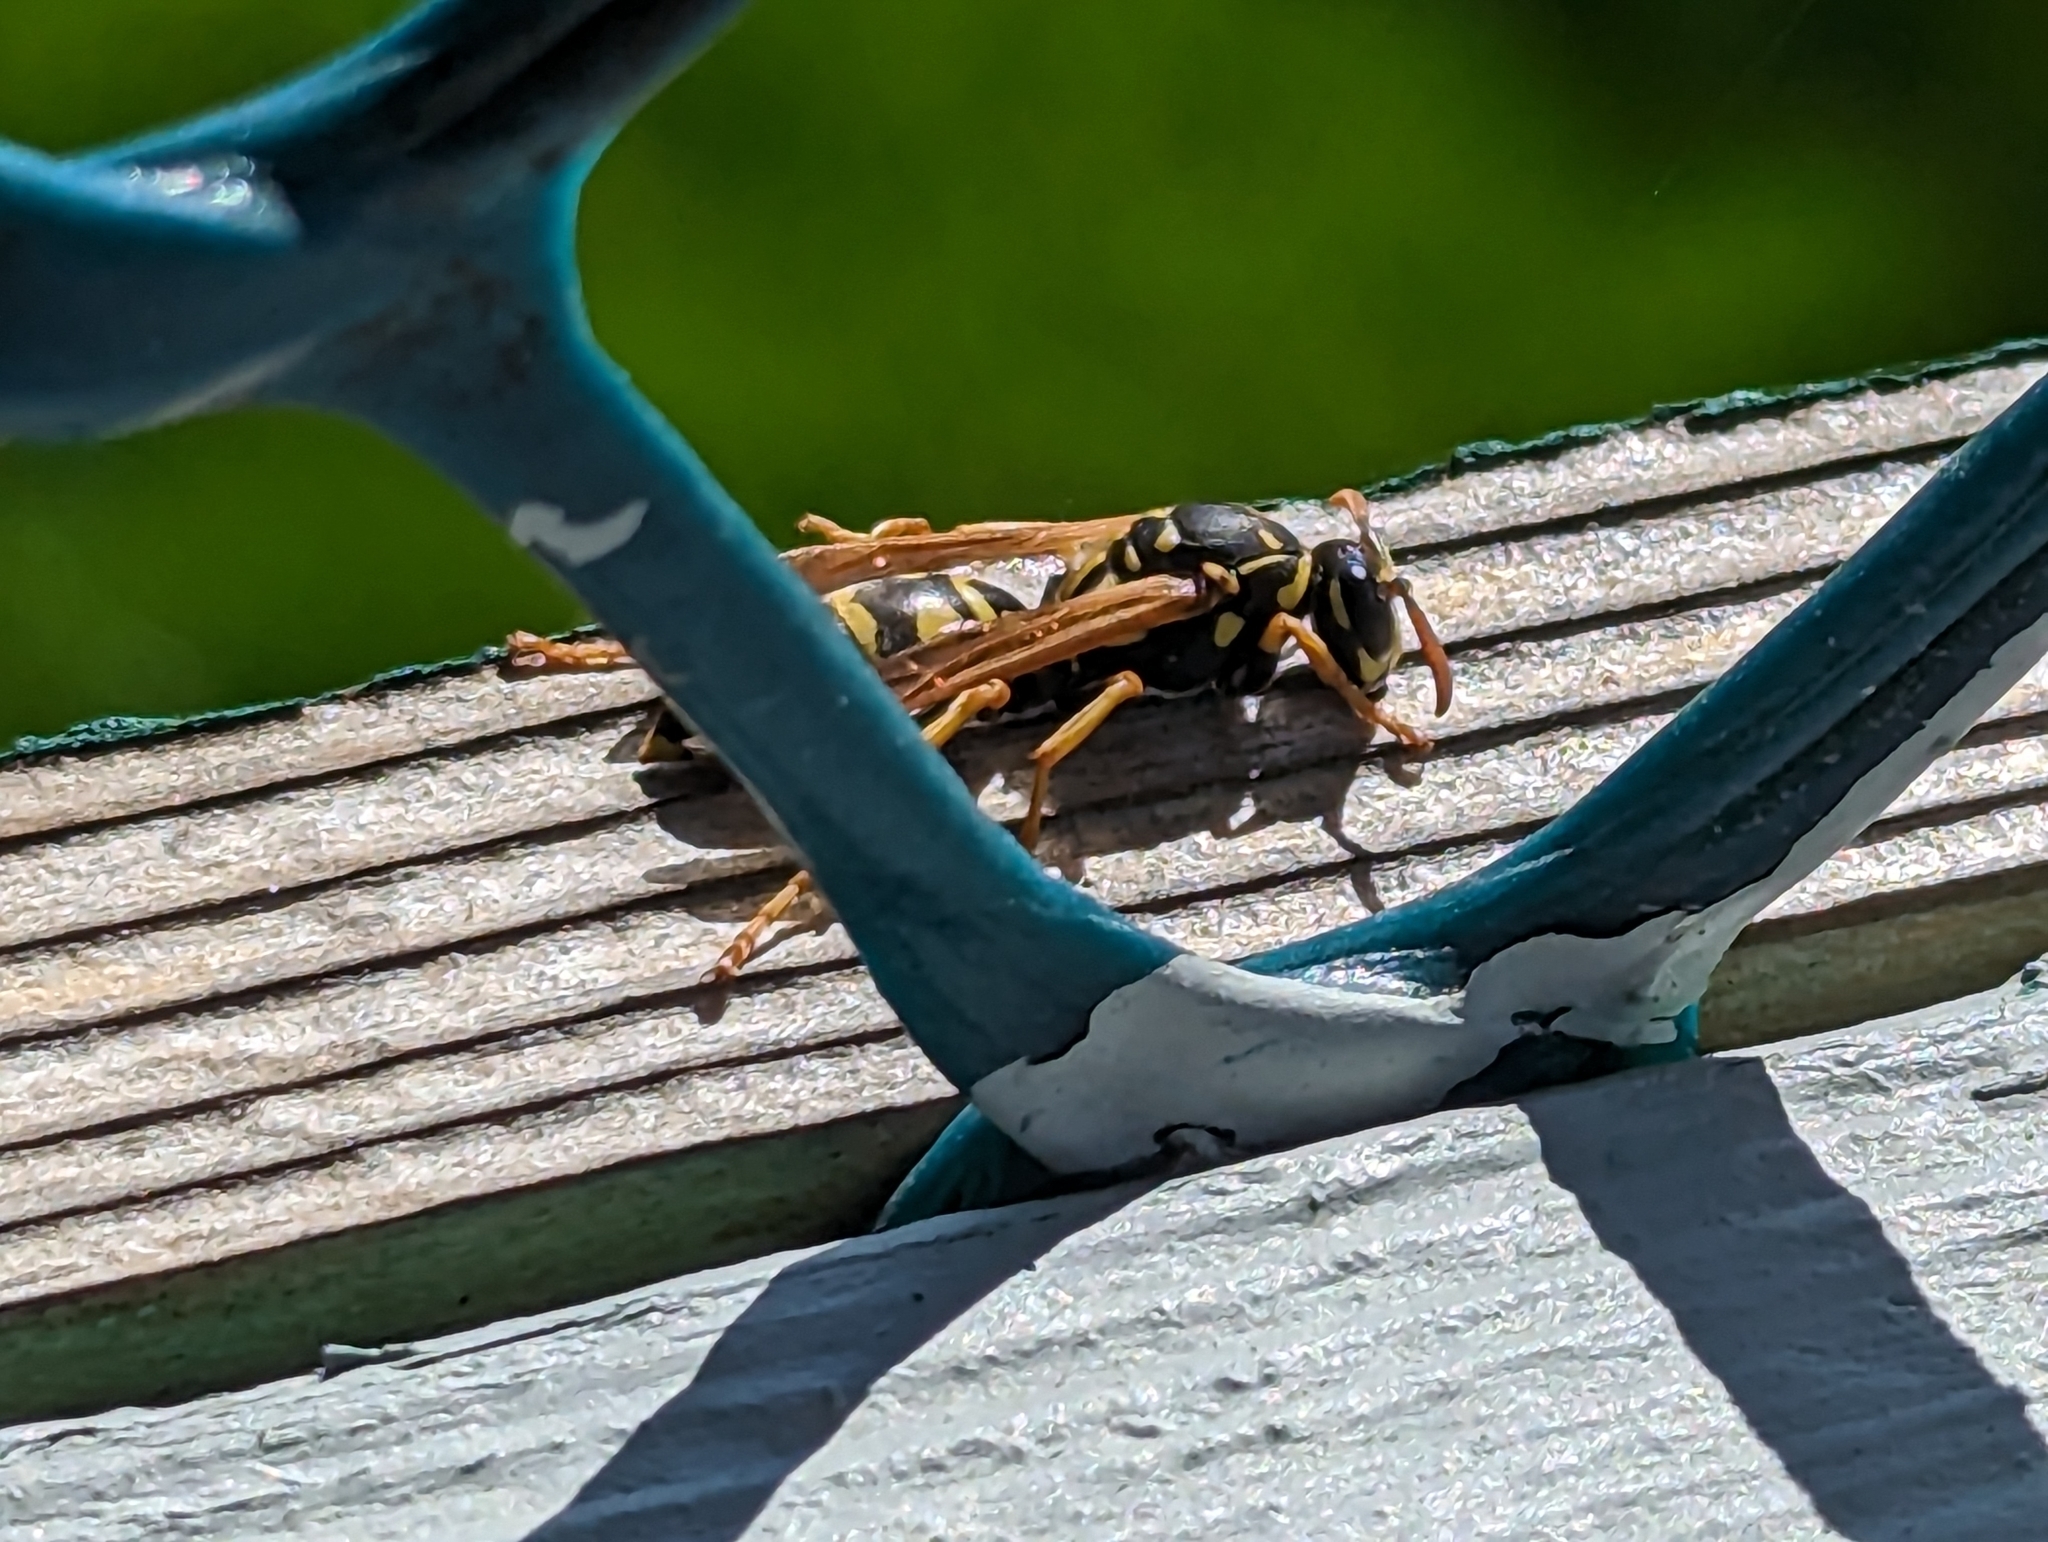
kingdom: Animalia
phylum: Arthropoda
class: Insecta
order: Hymenoptera
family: Eumenidae
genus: Polistes
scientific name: Polistes dominula
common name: Paper wasp
